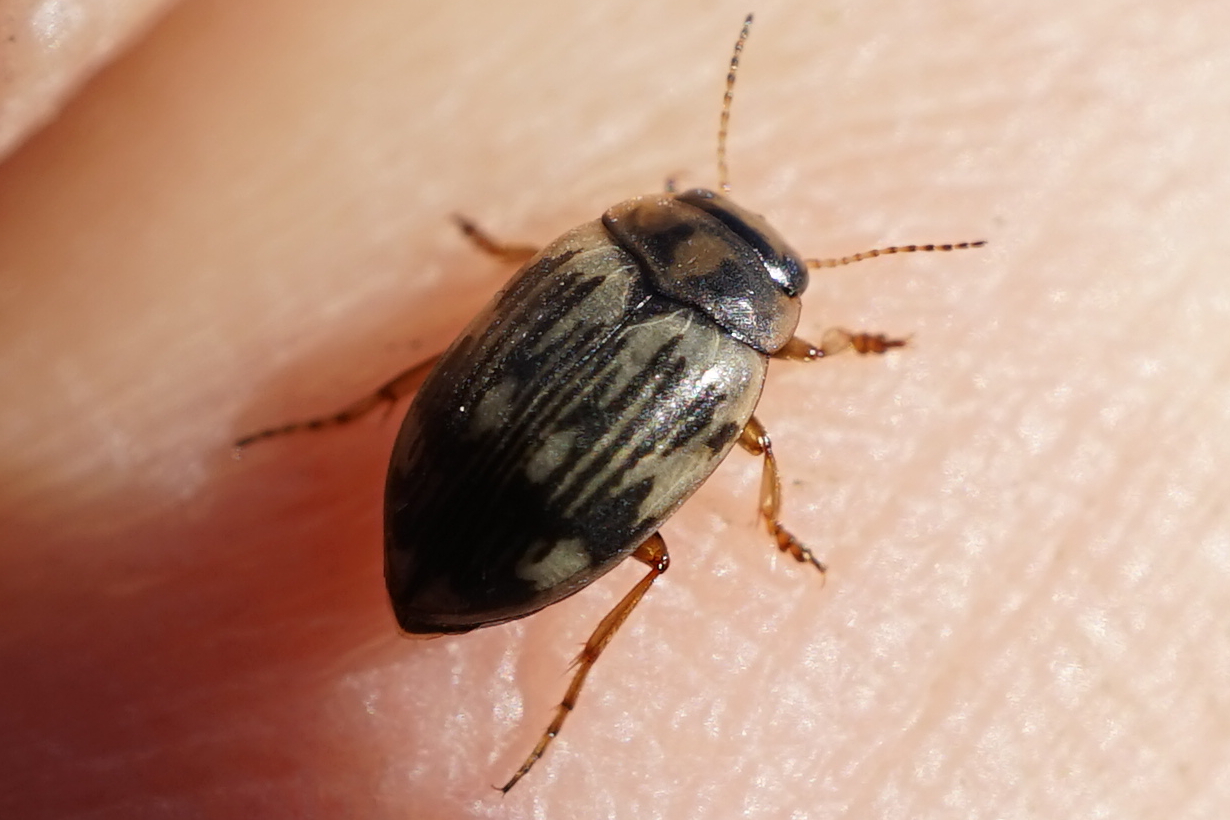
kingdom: Animalia
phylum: Arthropoda
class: Insecta
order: Coleoptera
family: Dytiscidae
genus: Nebrioporus
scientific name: Nebrioporus nipponicus
